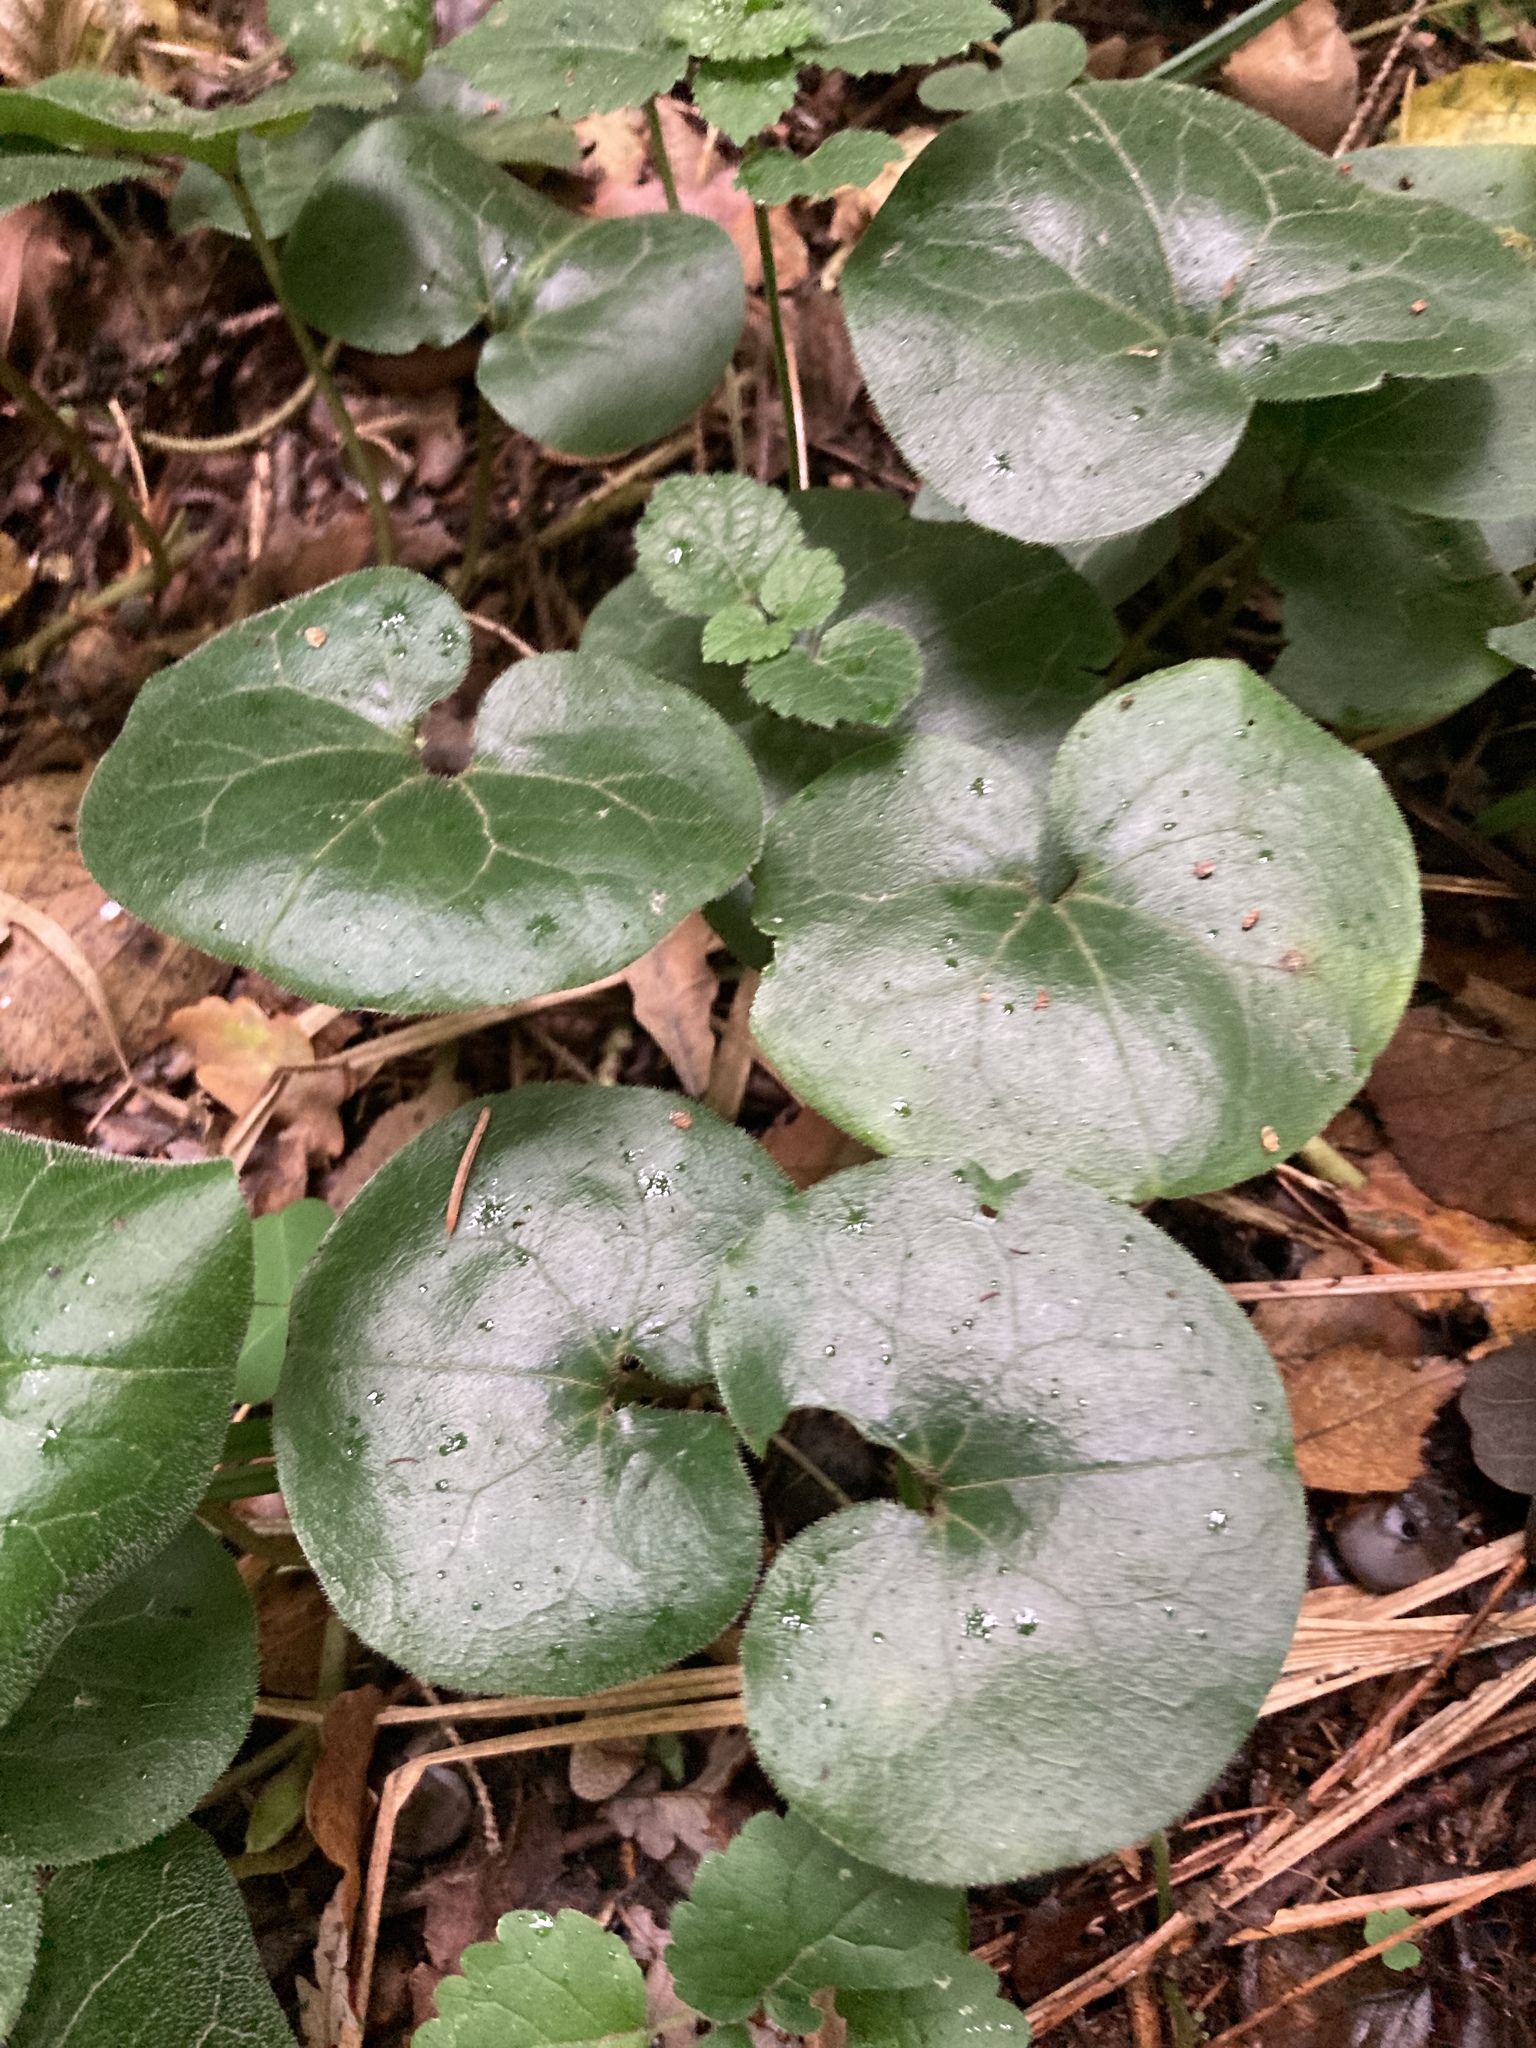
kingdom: Plantae
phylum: Tracheophyta
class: Magnoliopsida
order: Piperales
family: Aristolochiaceae
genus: Asarum
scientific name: Asarum europaeum
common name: Asarabacca
